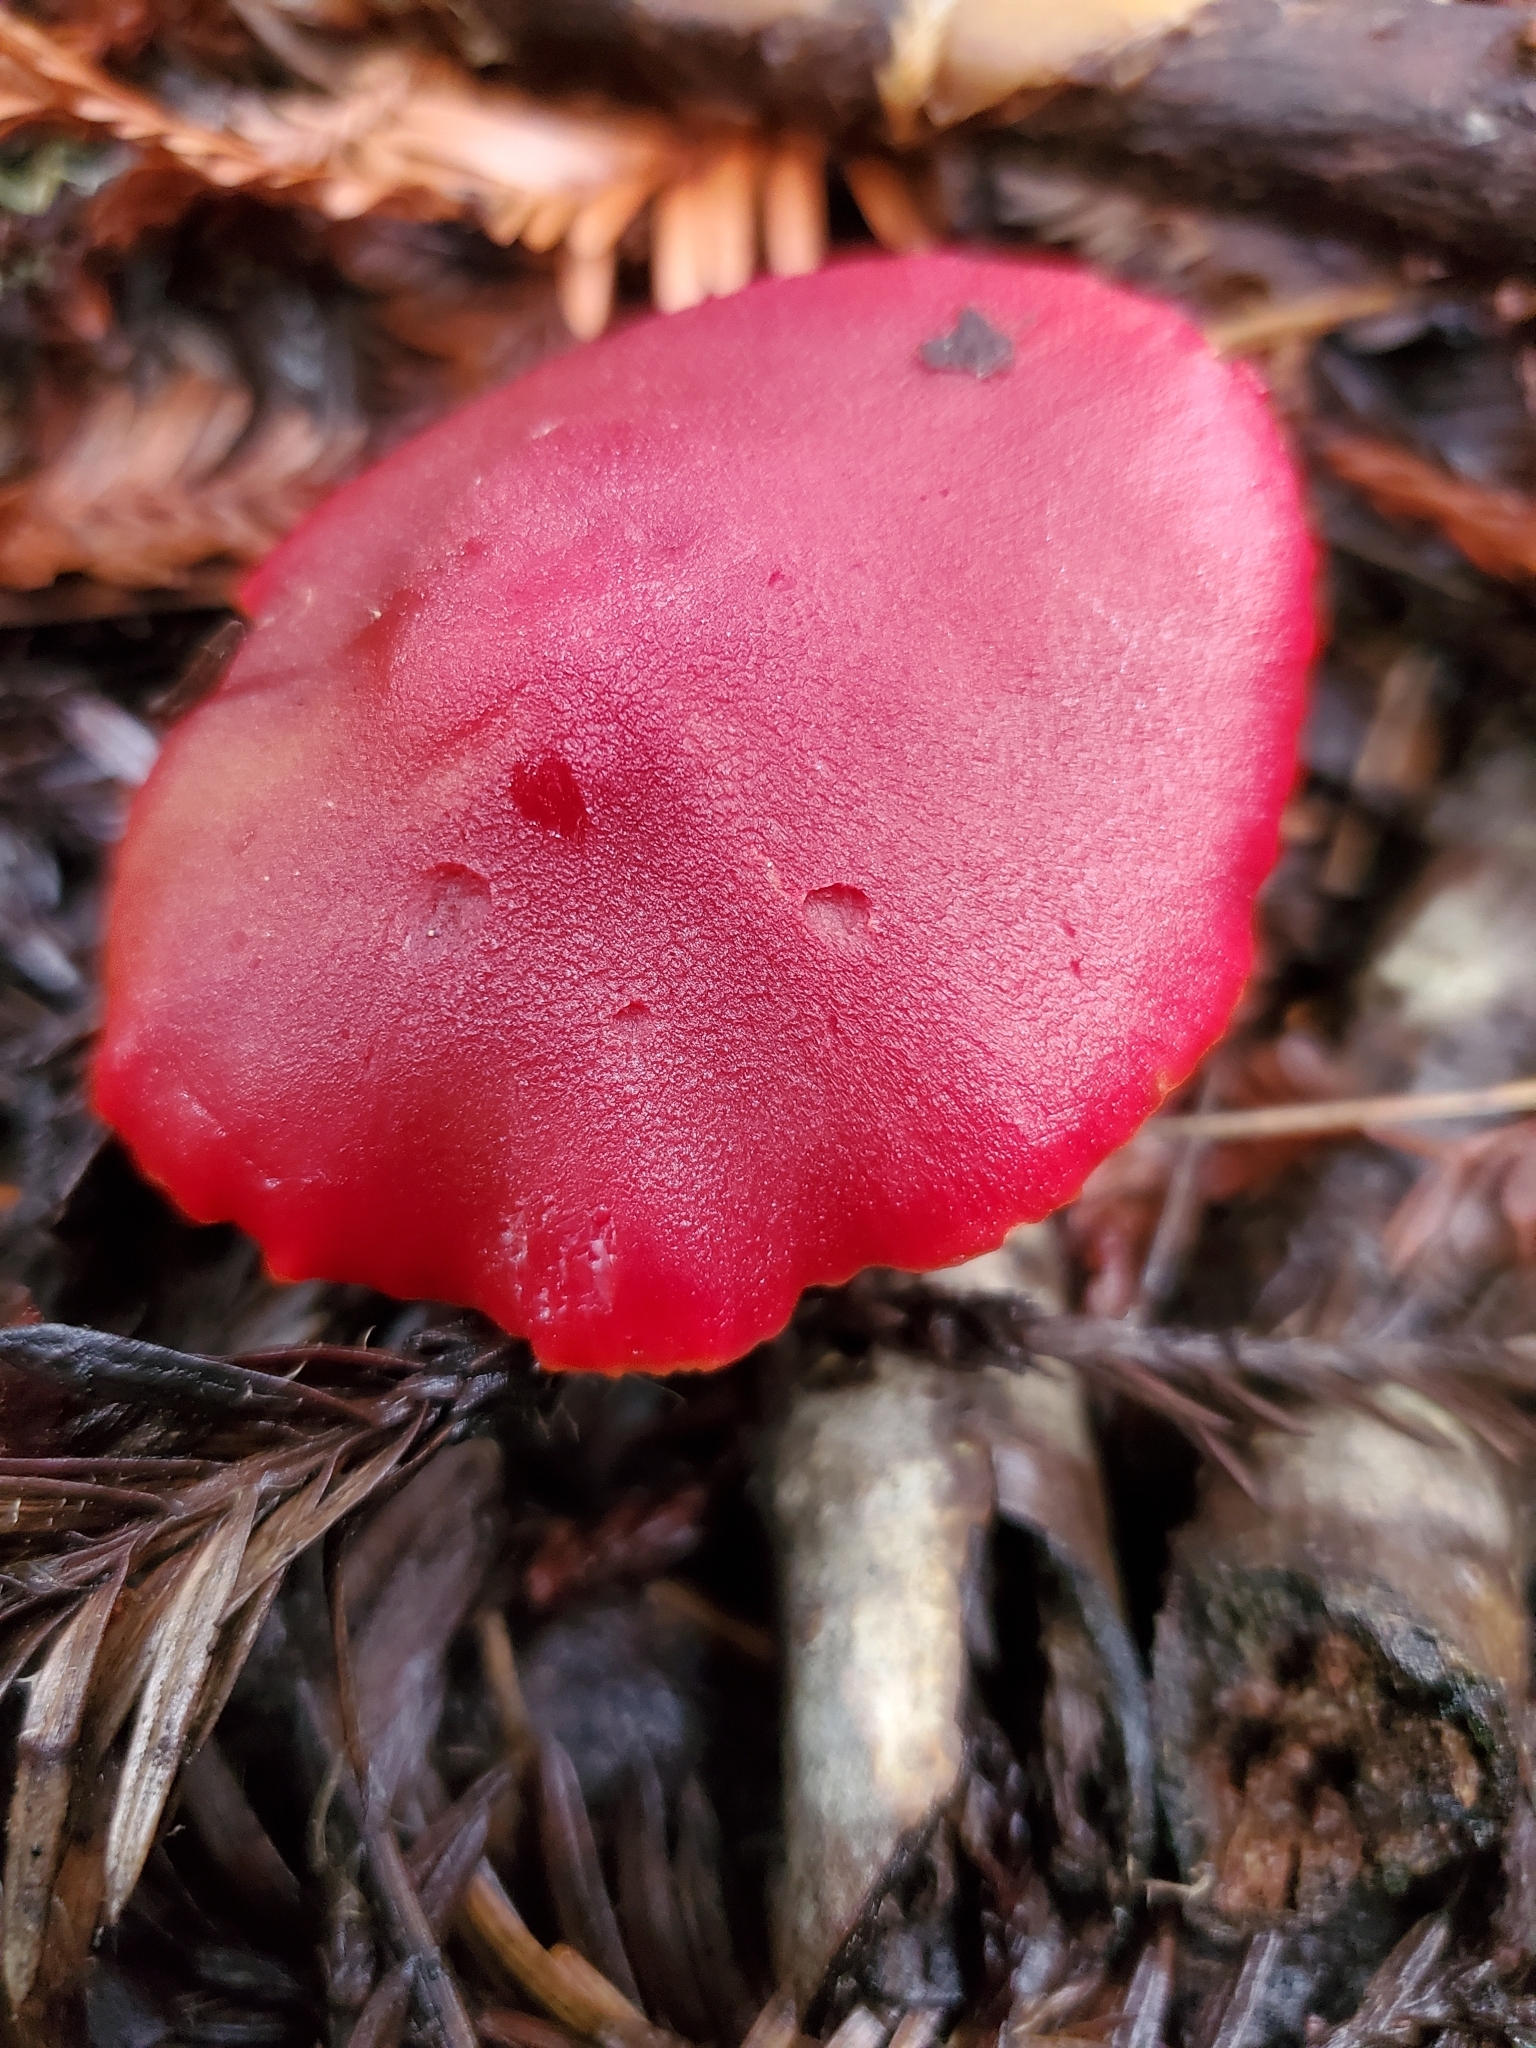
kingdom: Fungi
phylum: Basidiomycota
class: Agaricomycetes
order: Agaricales
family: Hygrophoraceae
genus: Hygrocybe
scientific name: Hygrocybe coccinea
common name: Scarlet hood
